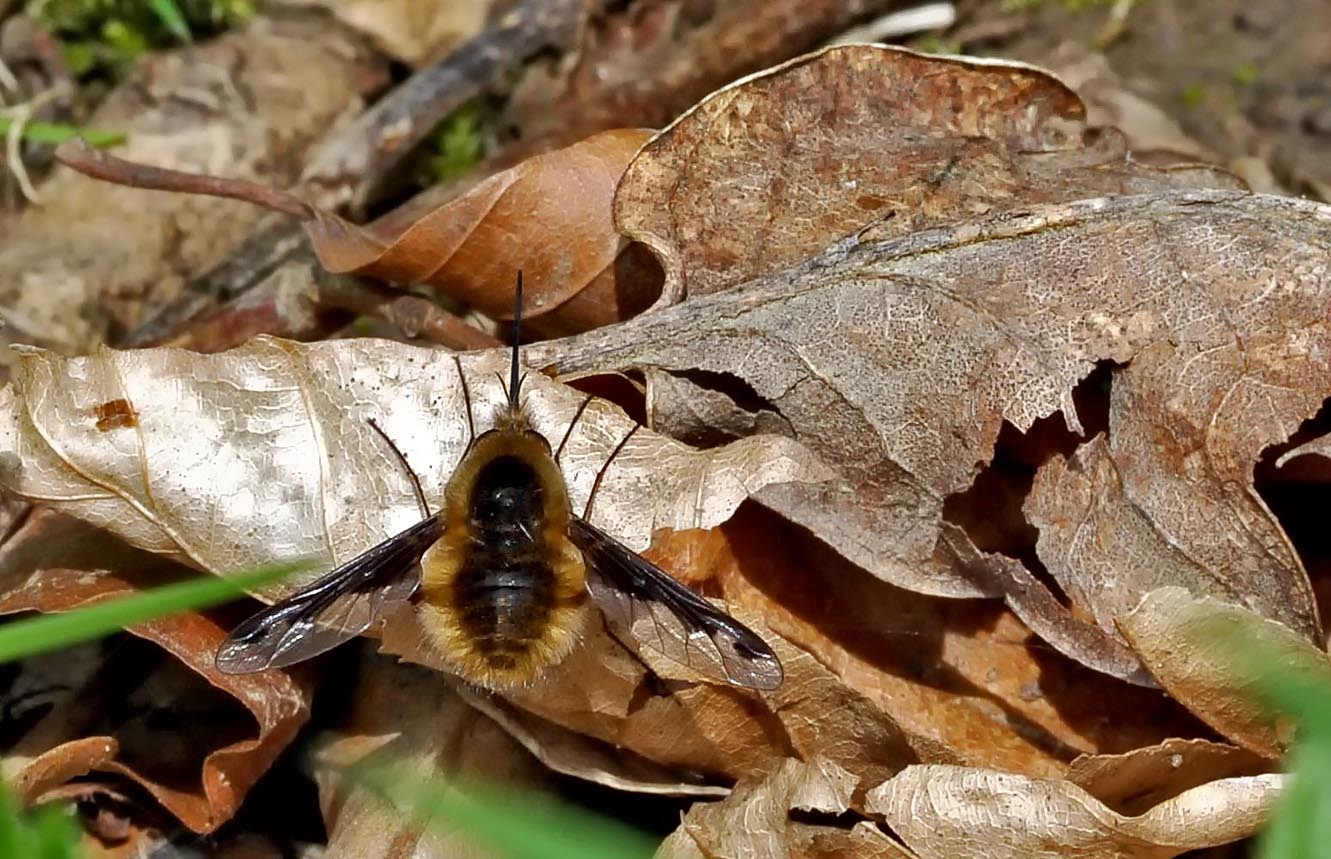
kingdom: Animalia
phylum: Arthropoda
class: Insecta
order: Diptera
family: Bombyliidae
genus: Bombylius
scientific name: Bombylius major
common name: Bee fly
